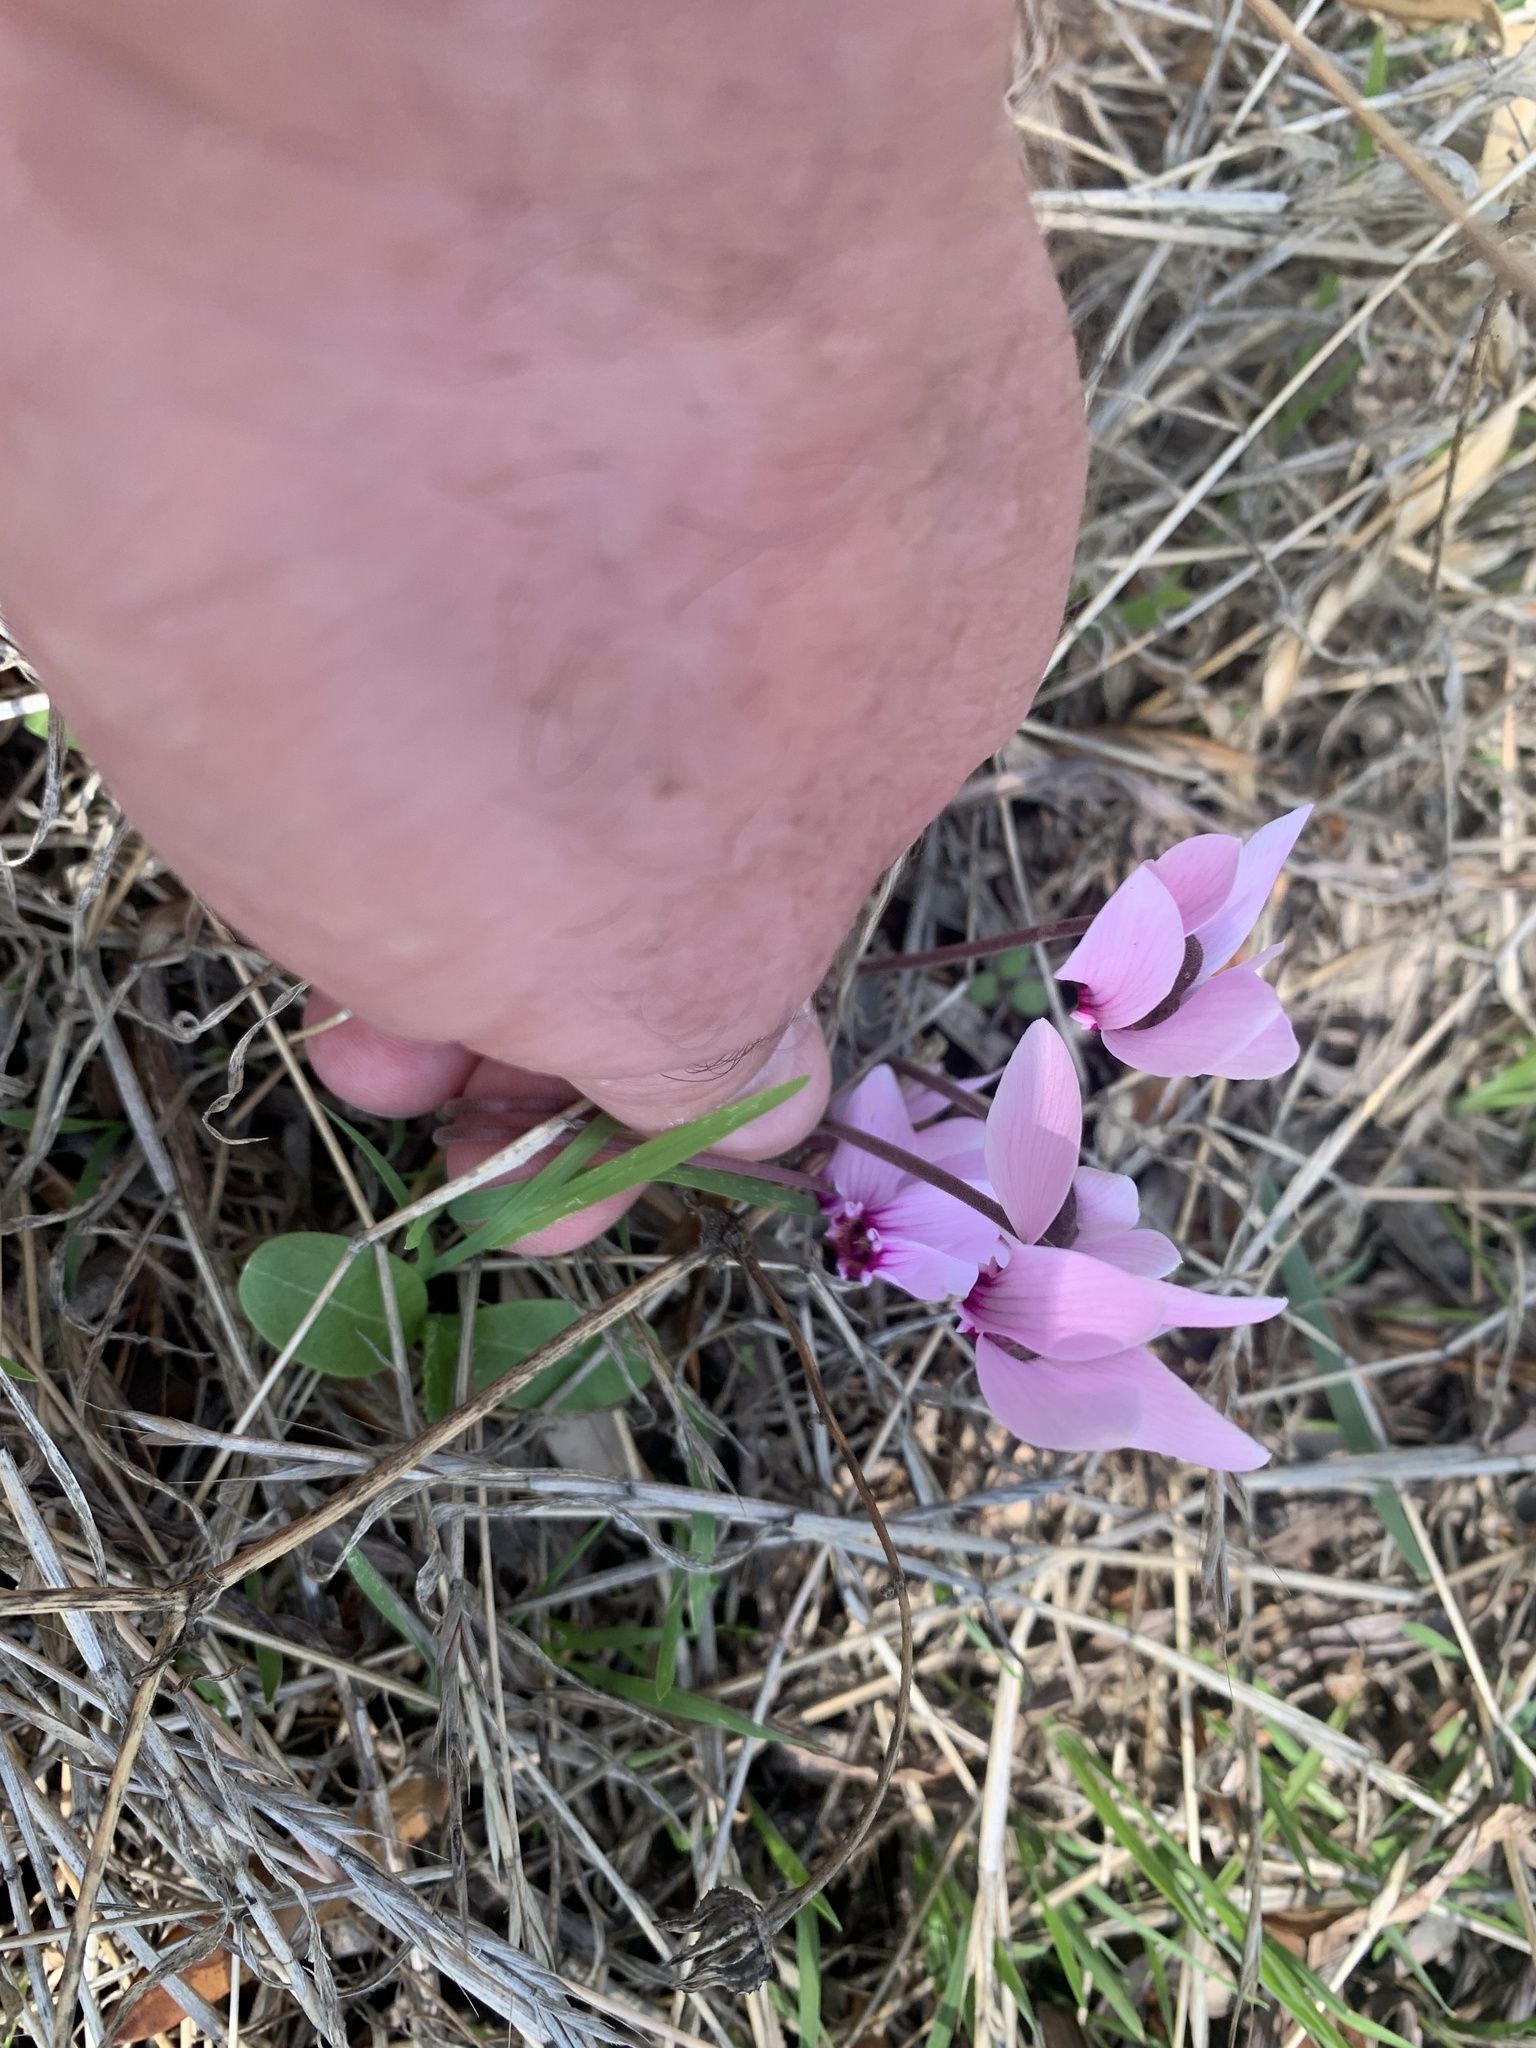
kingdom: Plantae
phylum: Tracheophyta
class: Magnoliopsida
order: Ericales
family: Primulaceae
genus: Cyclamen
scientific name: Cyclamen graecum
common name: Greek cyclamen
